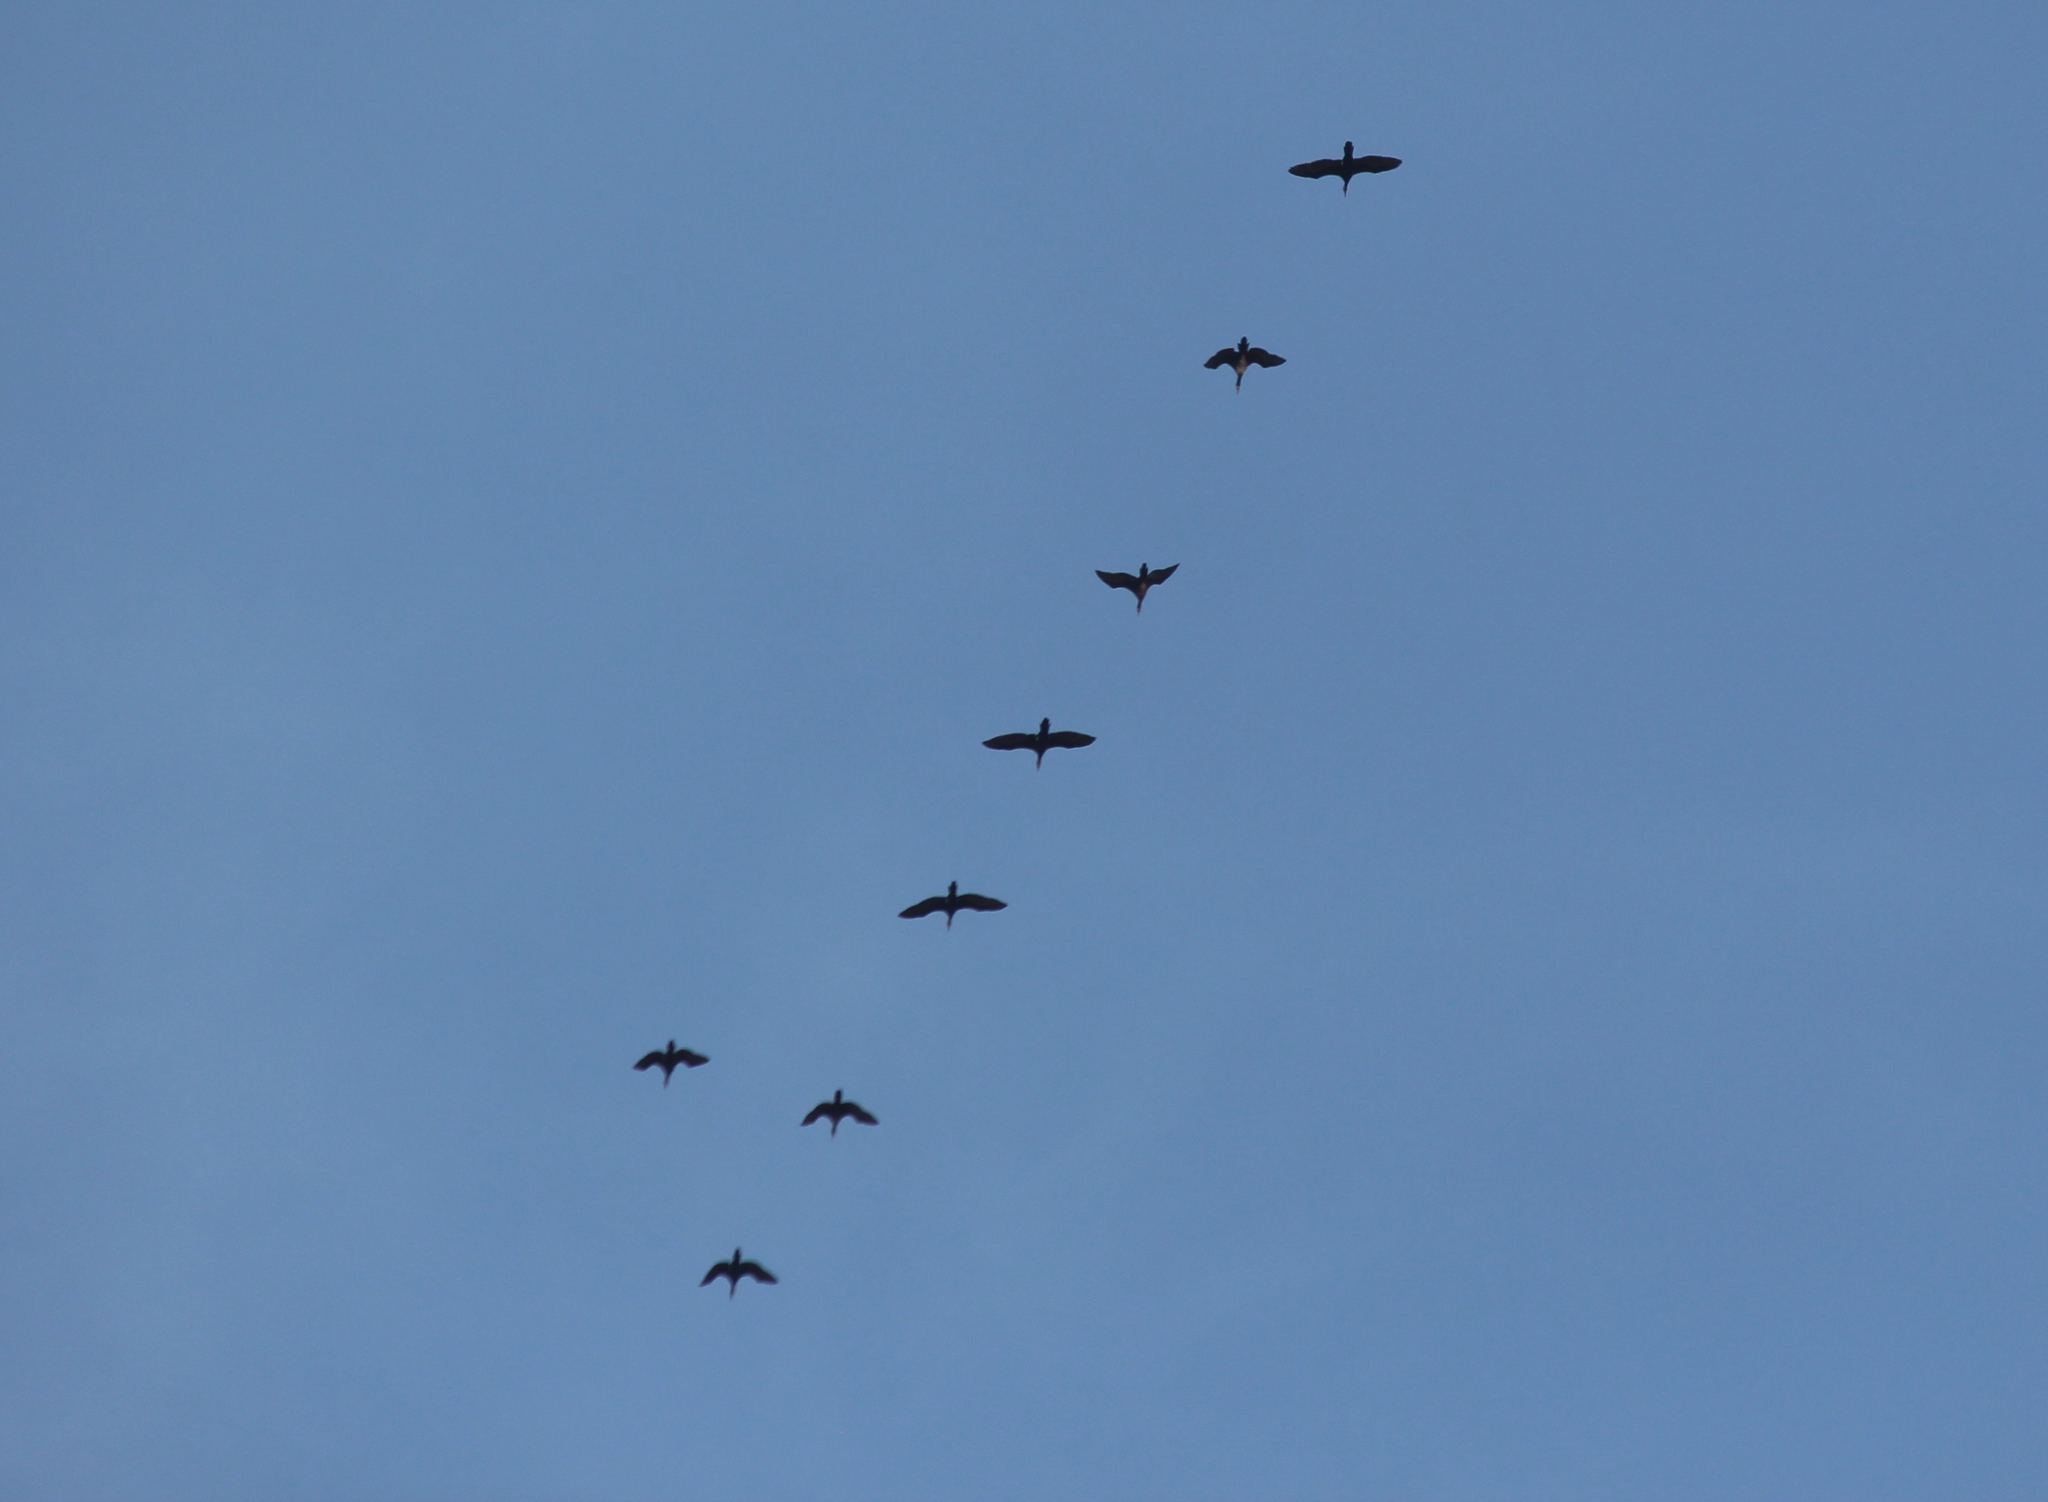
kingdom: Animalia
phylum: Chordata
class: Aves
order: Suliformes
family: Phalacrocoracidae
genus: Phalacrocorax
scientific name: Phalacrocorax carbo
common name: Great cormorant
